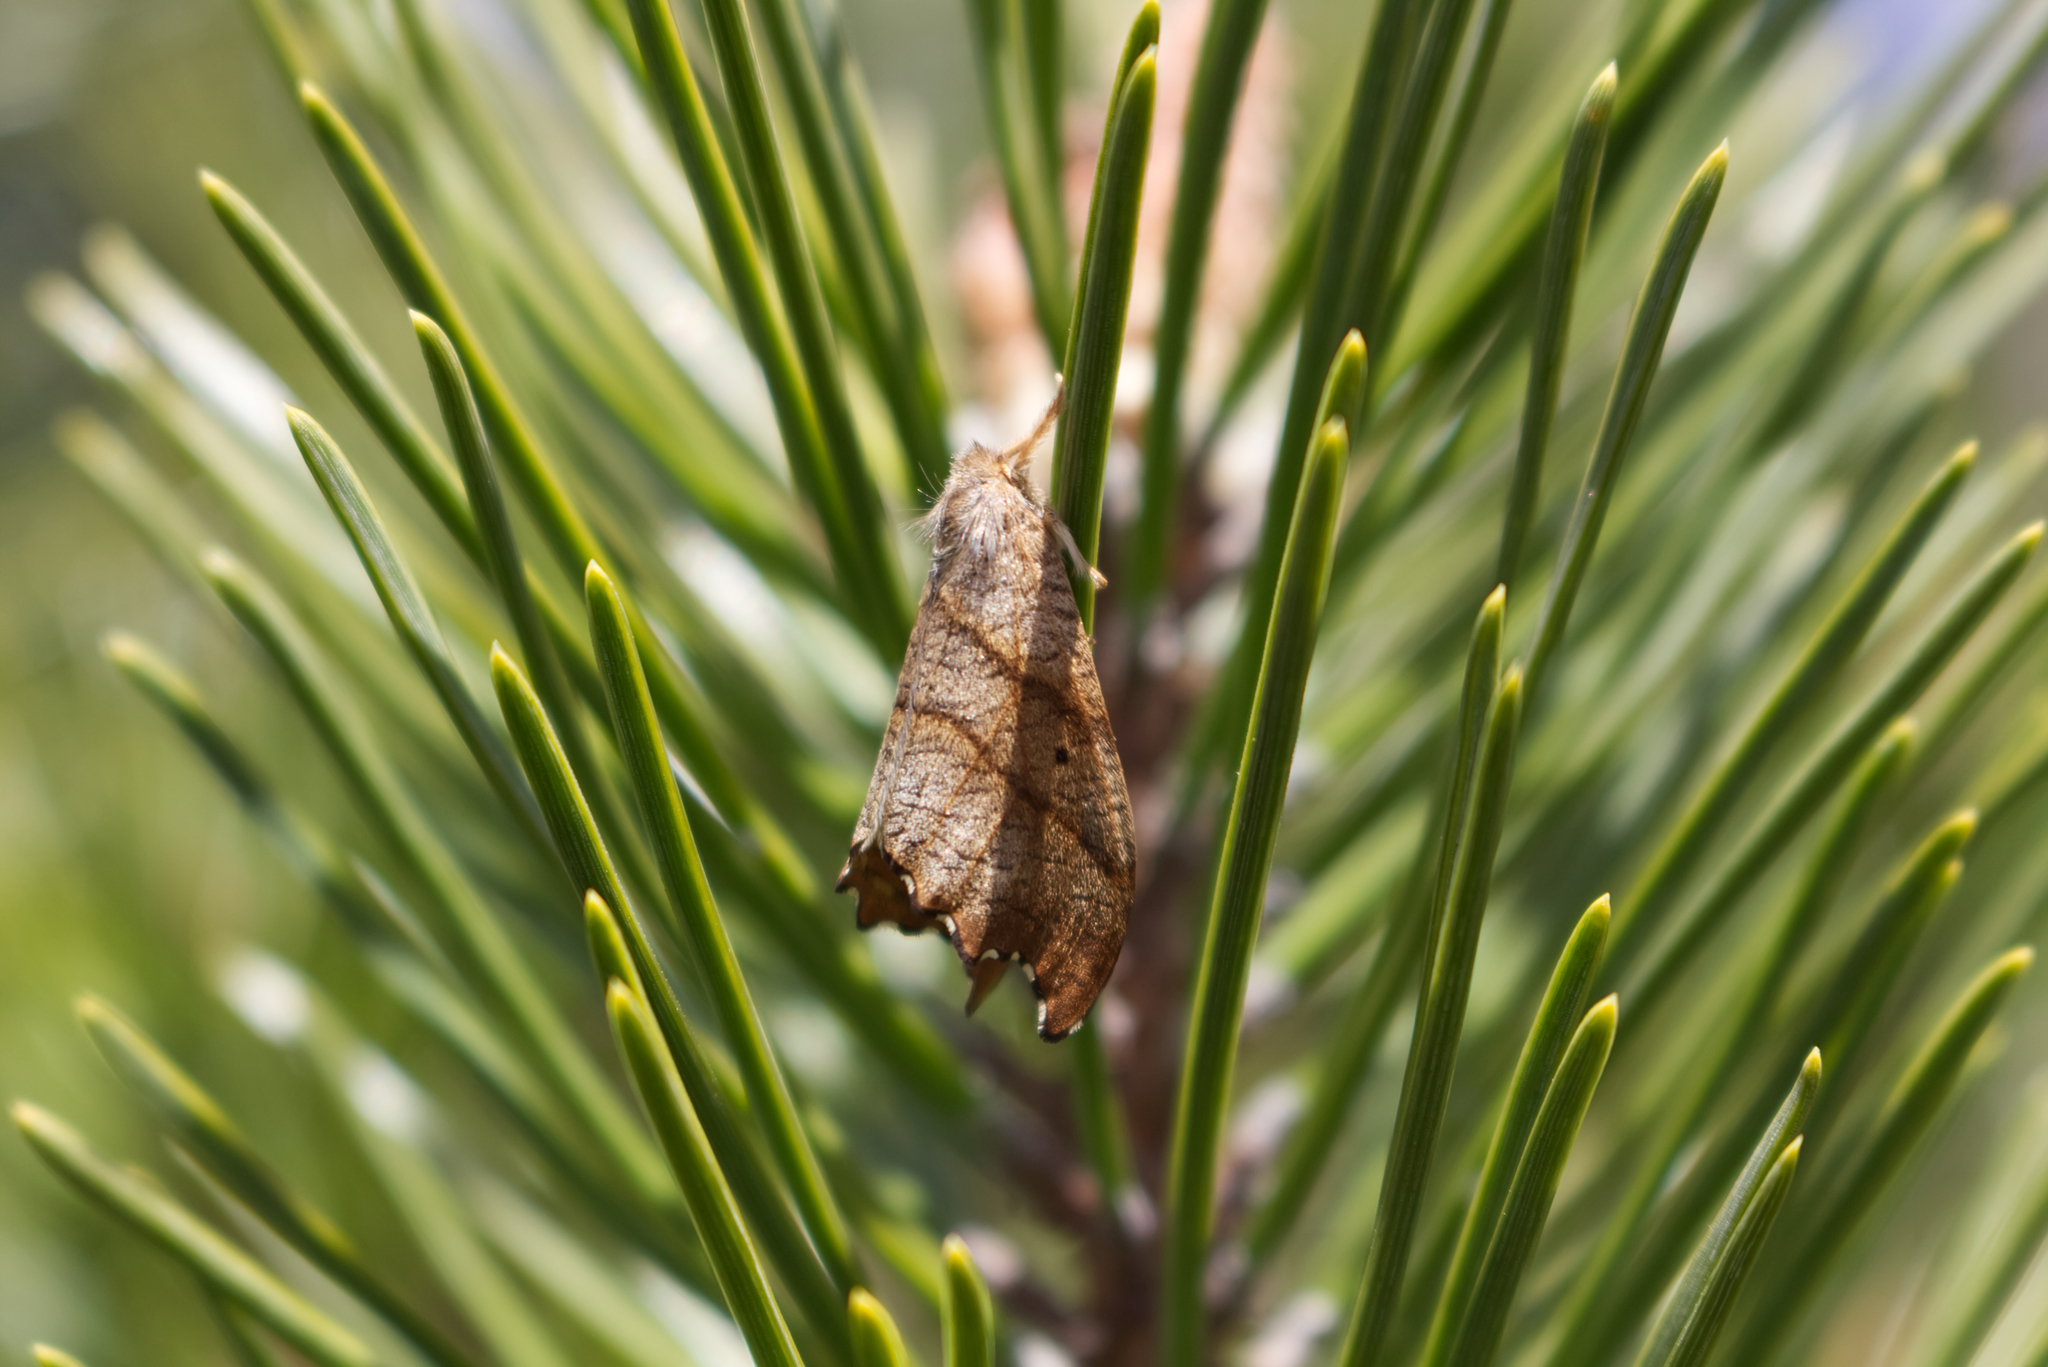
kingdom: Animalia
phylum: Arthropoda
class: Insecta
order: Lepidoptera
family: Drepanidae
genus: Falcaria
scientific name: Falcaria lacertinaria
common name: Scalloped hook-tip
